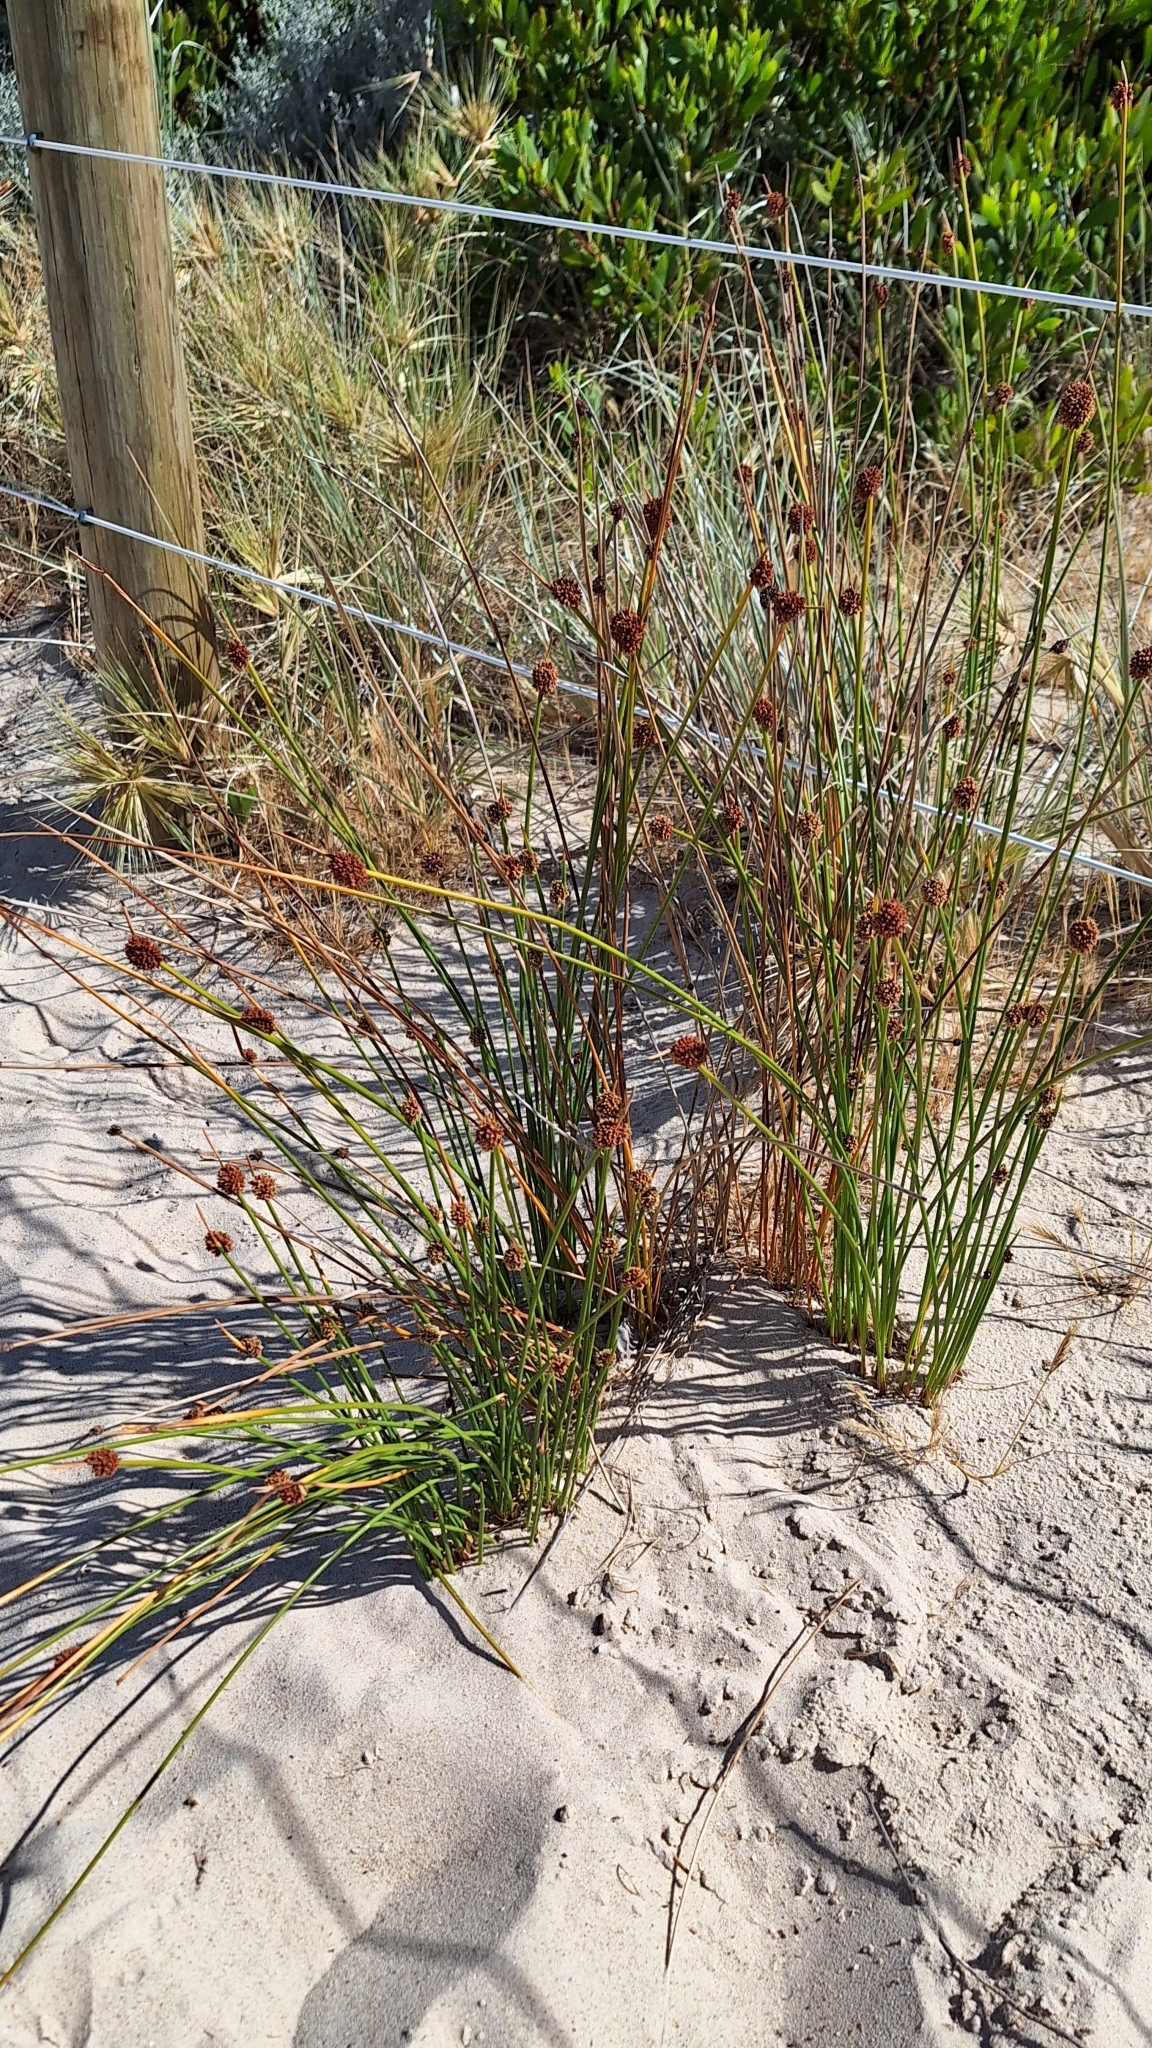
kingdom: Plantae
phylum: Tracheophyta
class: Liliopsida
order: Poales
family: Cyperaceae
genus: Ficinia
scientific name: Ficinia nodosa
